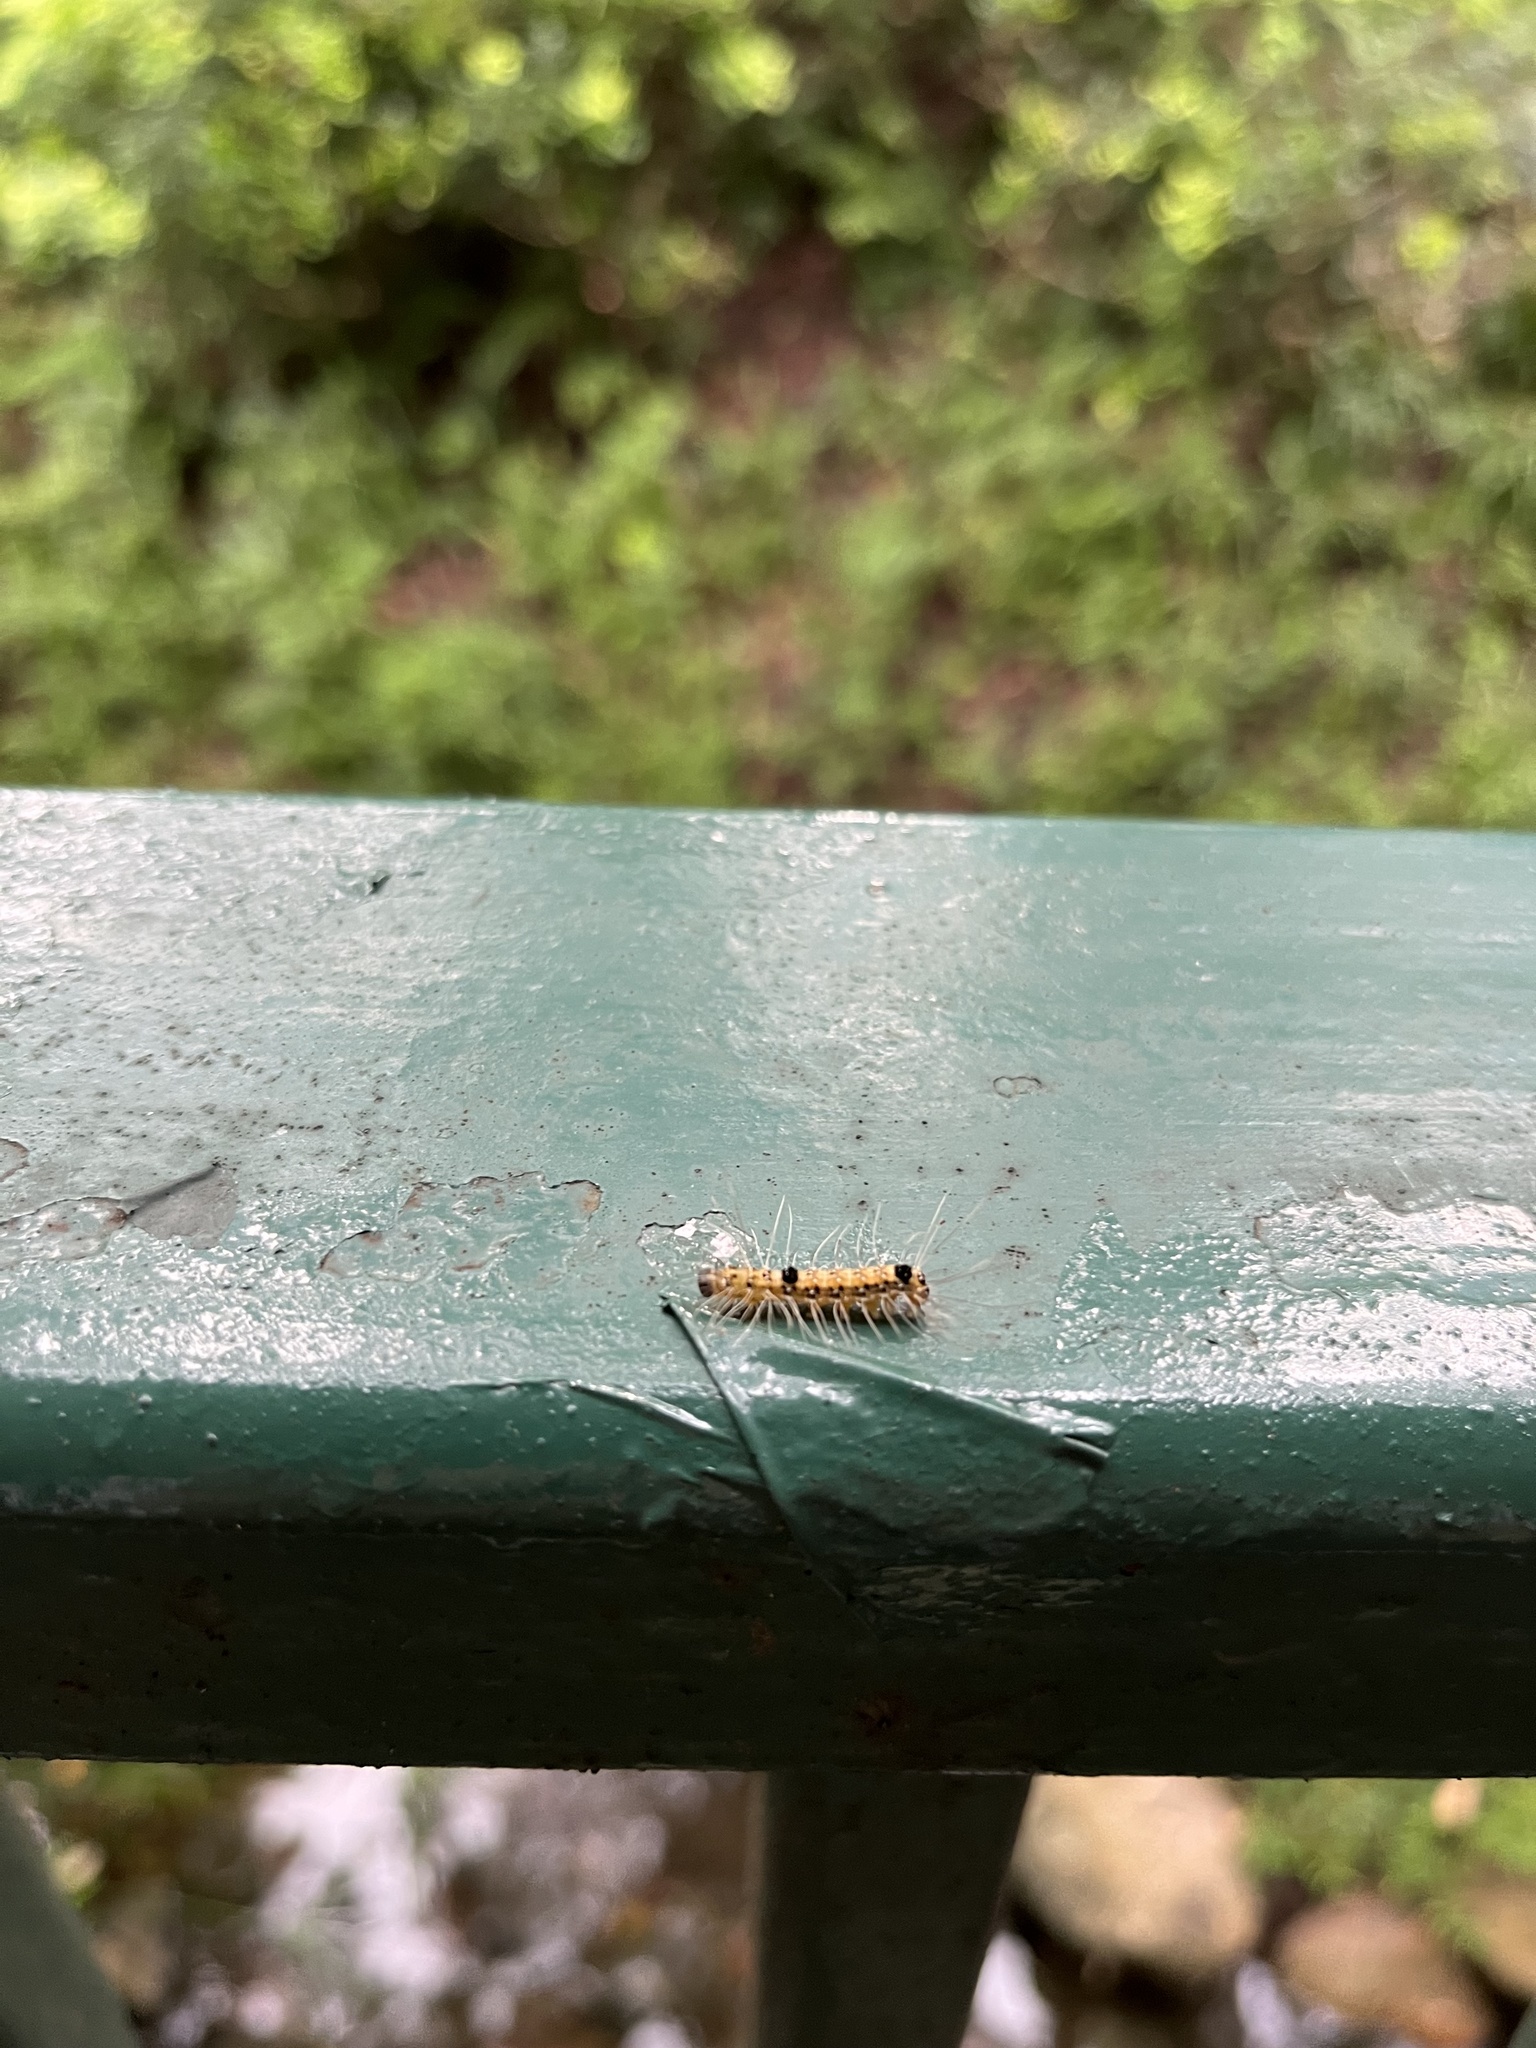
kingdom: Animalia
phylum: Arthropoda
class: Insecta
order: Lepidoptera
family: Nolidae
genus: Selepa
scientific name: Selepa discigera
